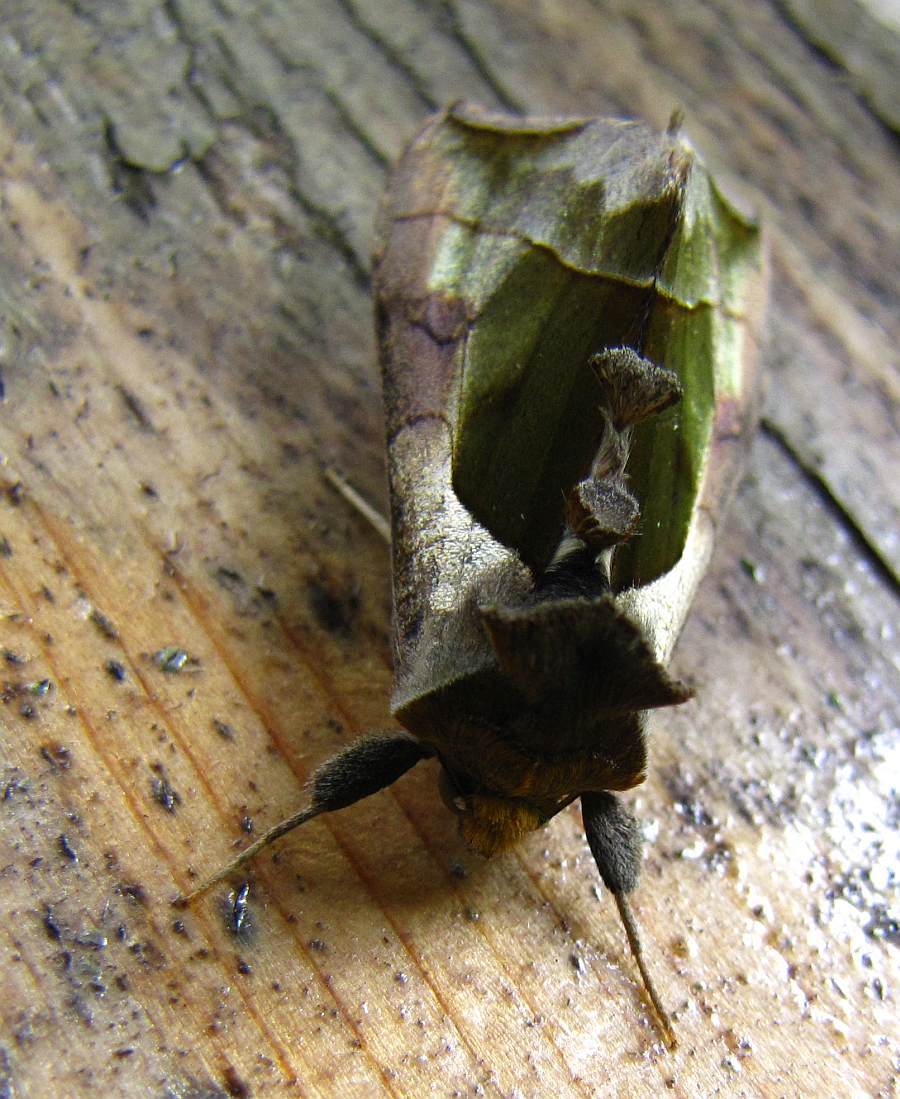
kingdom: Animalia
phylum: Arthropoda
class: Insecta
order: Lepidoptera
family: Noctuidae
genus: Diachrysia
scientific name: Diachrysia balluca
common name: Green-patched looper moth
